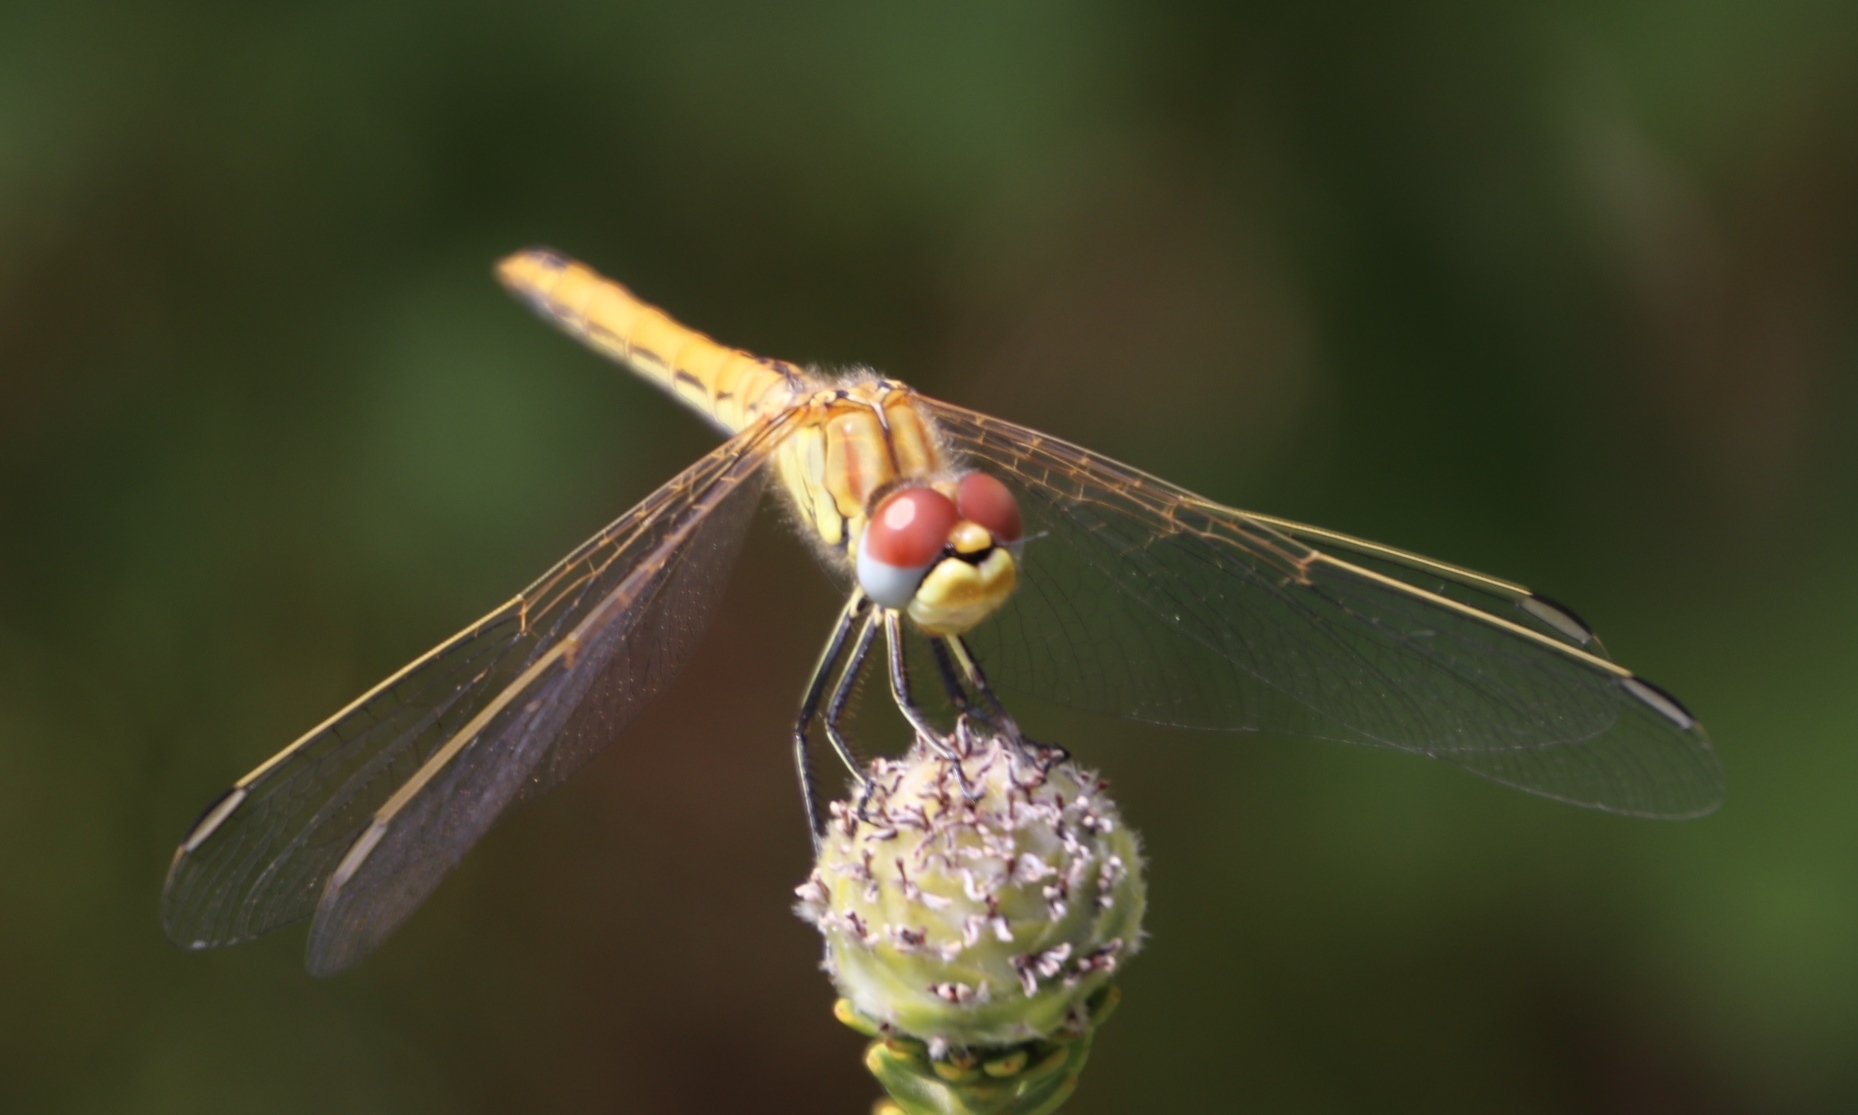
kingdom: Animalia
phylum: Arthropoda
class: Insecta
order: Odonata
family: Libellulidae
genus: Sympetrum
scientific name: Sympetrum fonscolombii
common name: Red-veined darter
